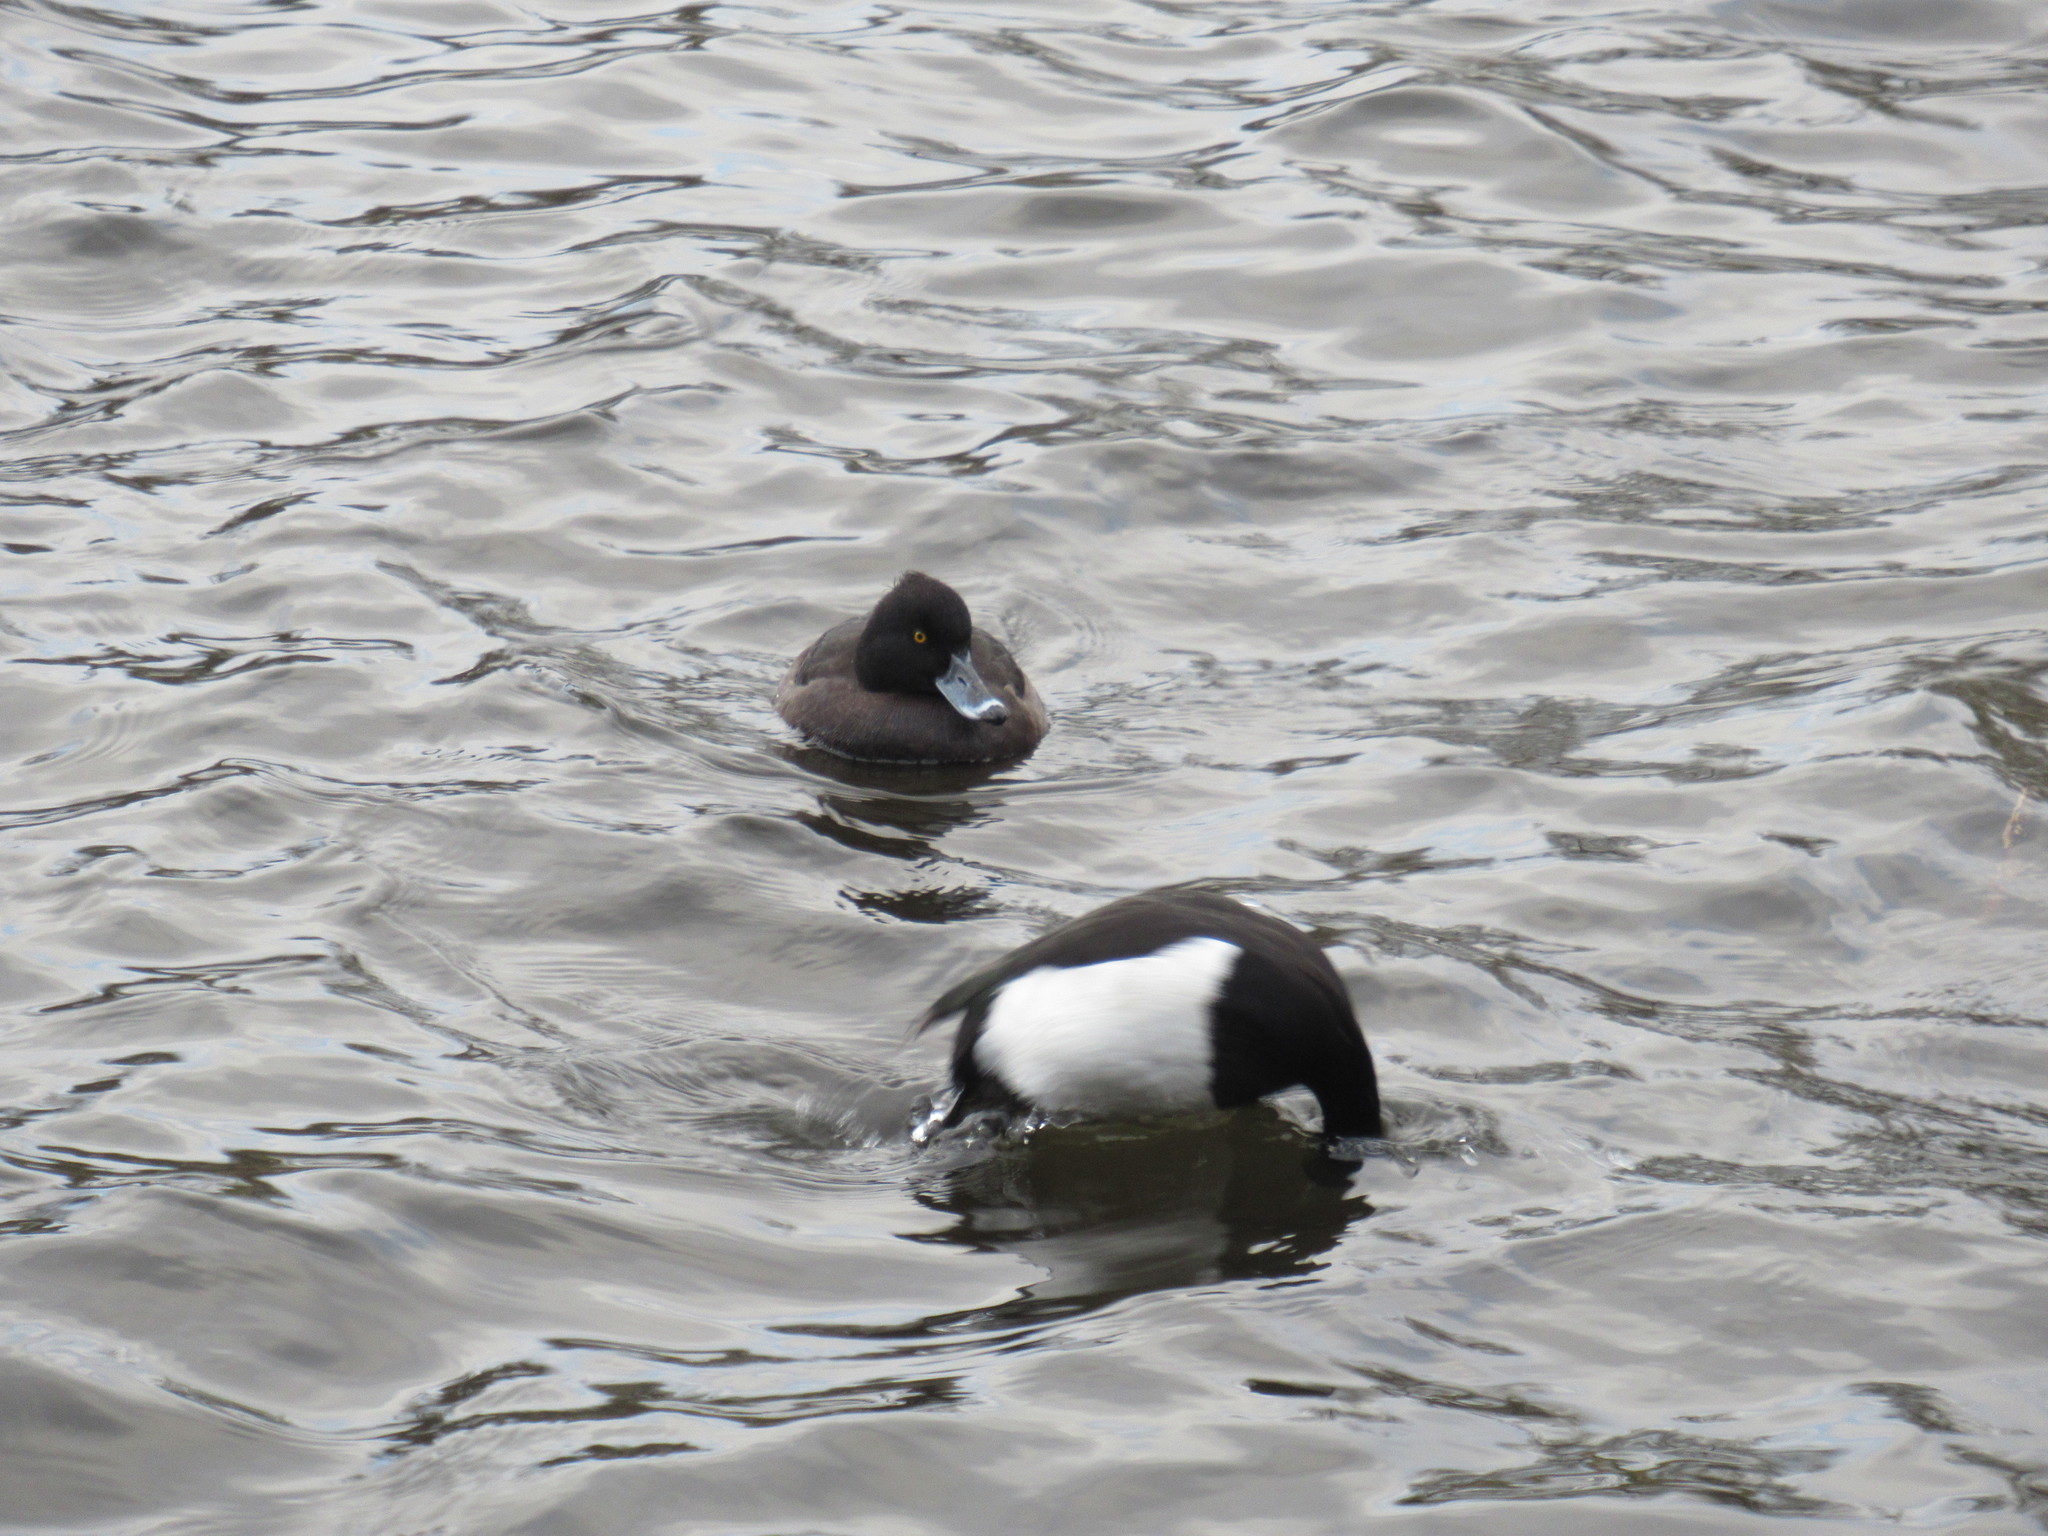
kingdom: Animalia
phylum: Chordata
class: Aves
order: Anseriformes
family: Anatidae
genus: Aythya
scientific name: Aythya fuligula
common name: Tufted duck
